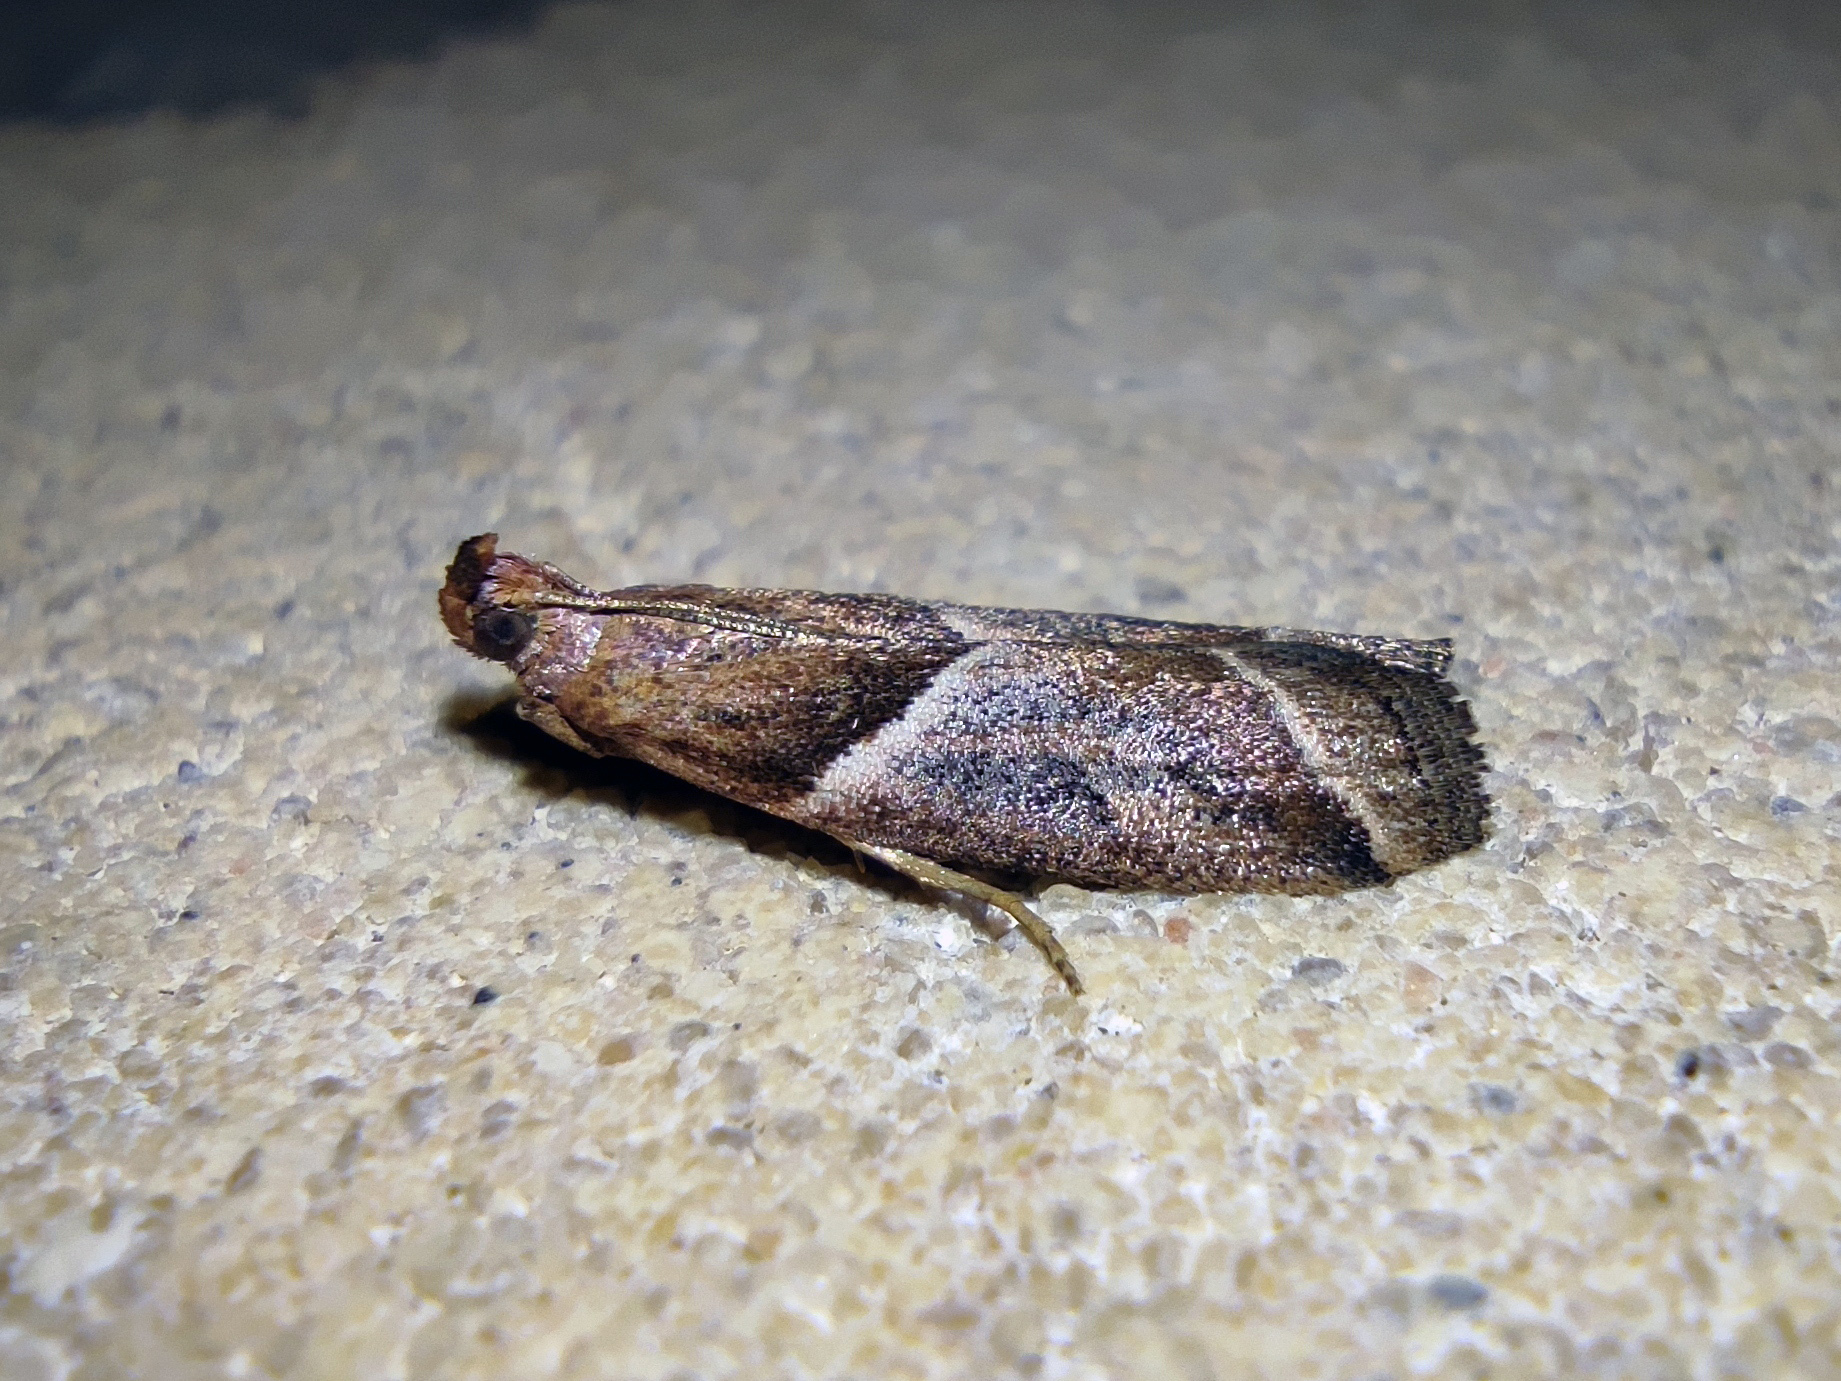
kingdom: Animalia
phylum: Arthropoda
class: Insecta
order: Lepidoptera
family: Pyralidae
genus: Nyctegretis
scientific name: Nyctegretis lineana
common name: Agate knot-horn
